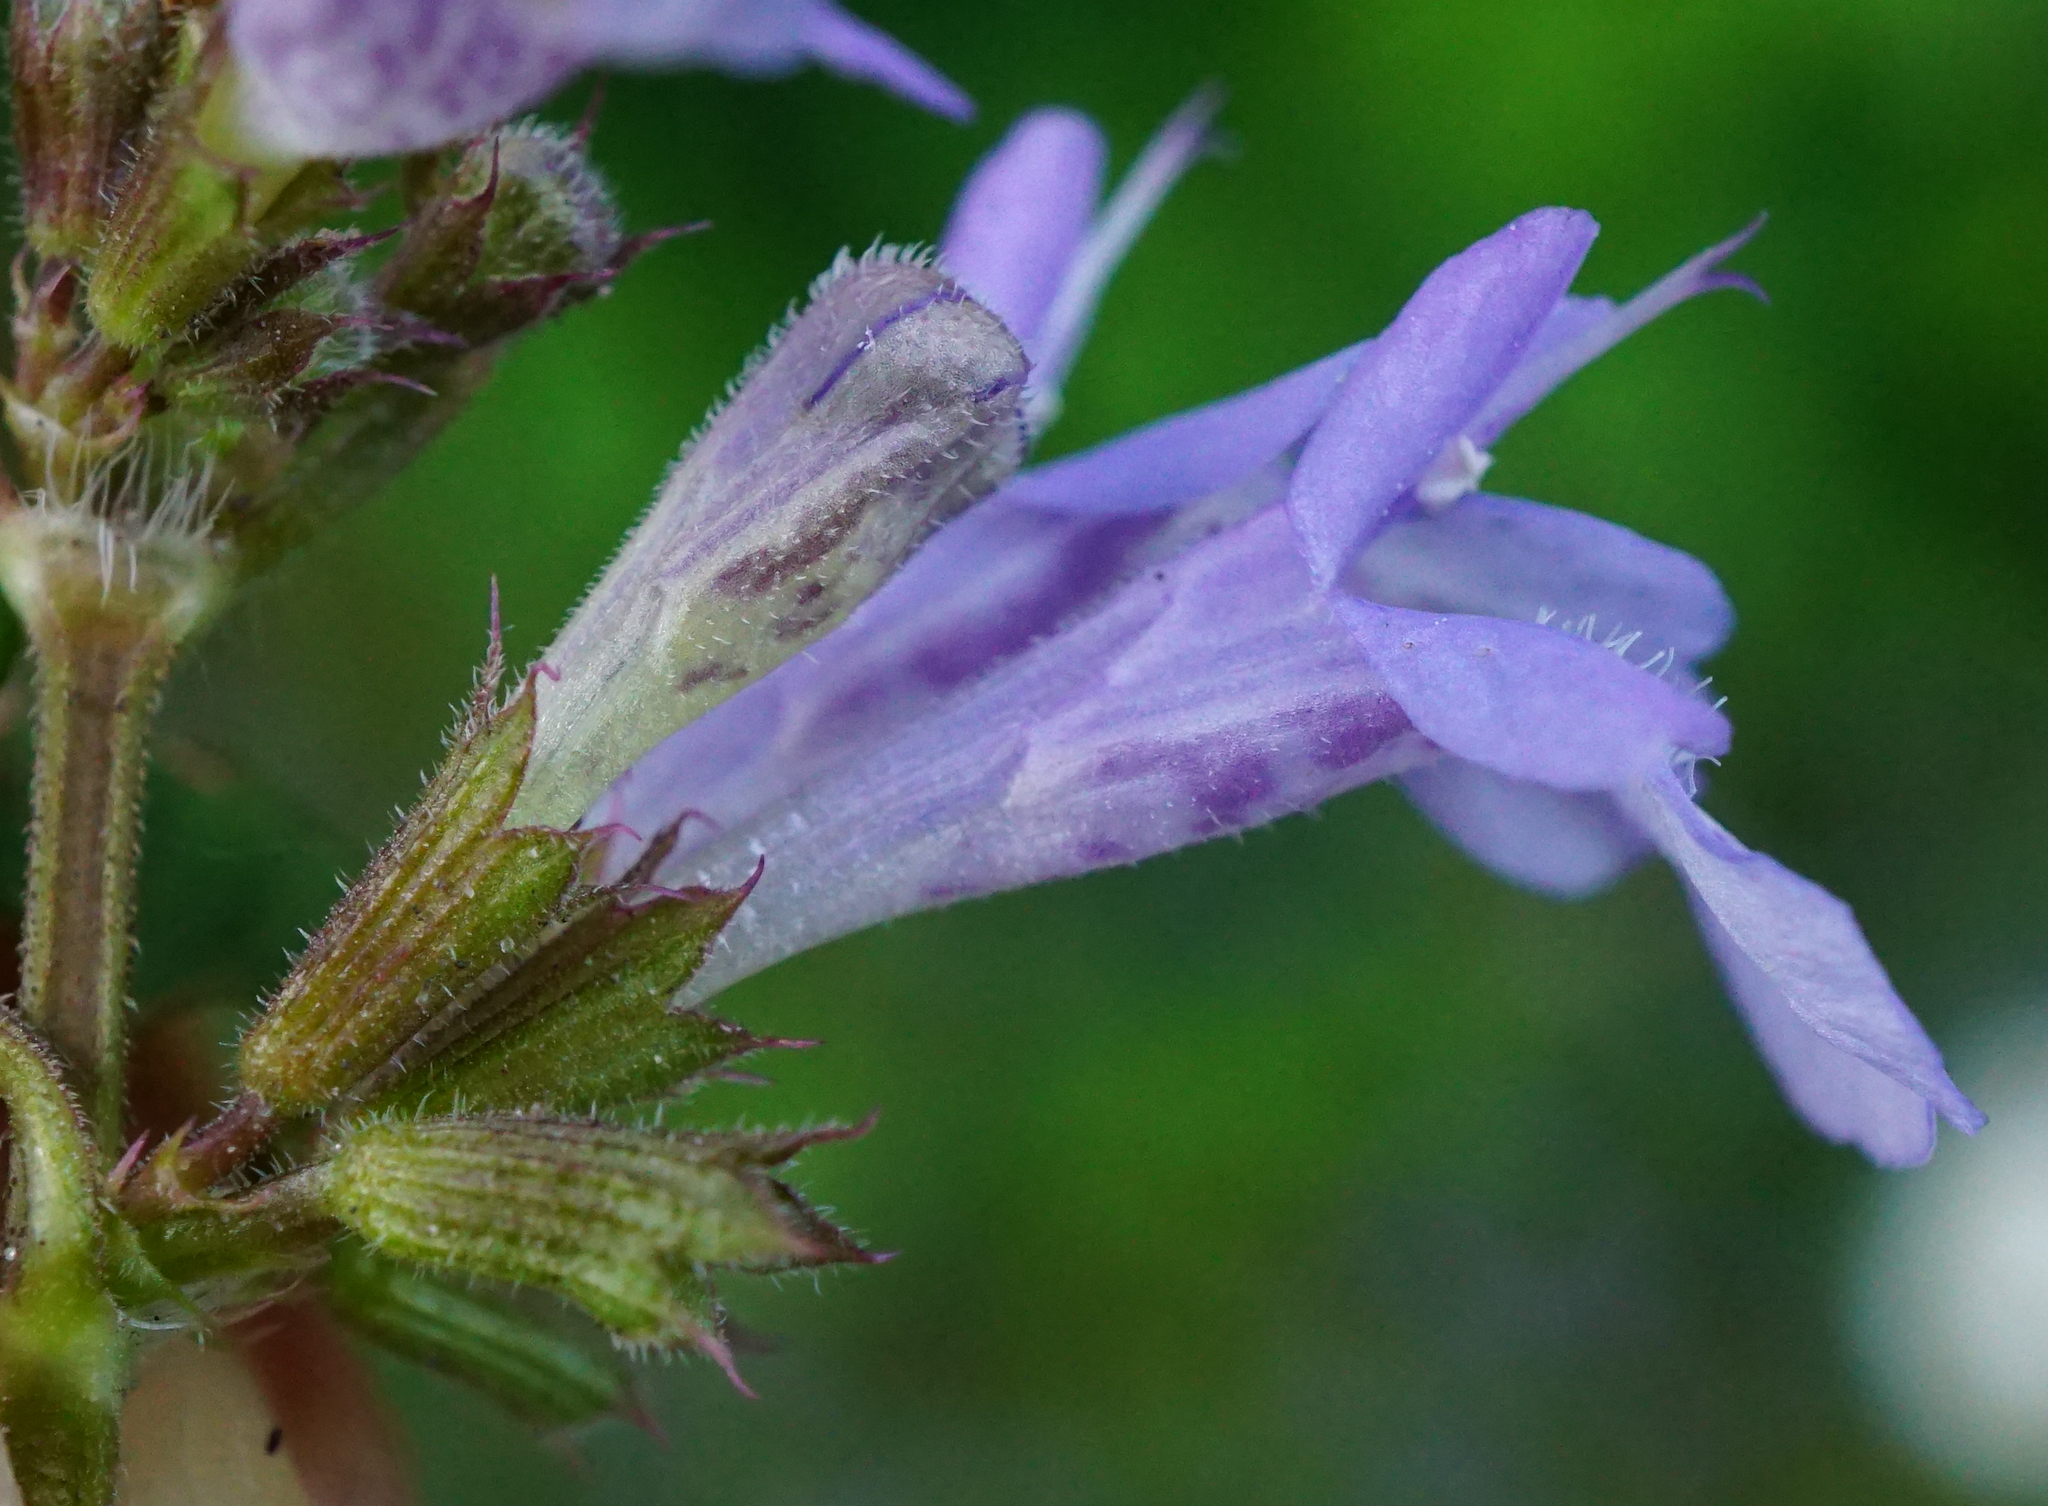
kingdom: Plantae
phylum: Tracheophyta
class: Magnoliopsida
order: Lamiales
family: Lamiaceae
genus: Glechoma
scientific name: Glechoma hederacea
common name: Ground ivy
